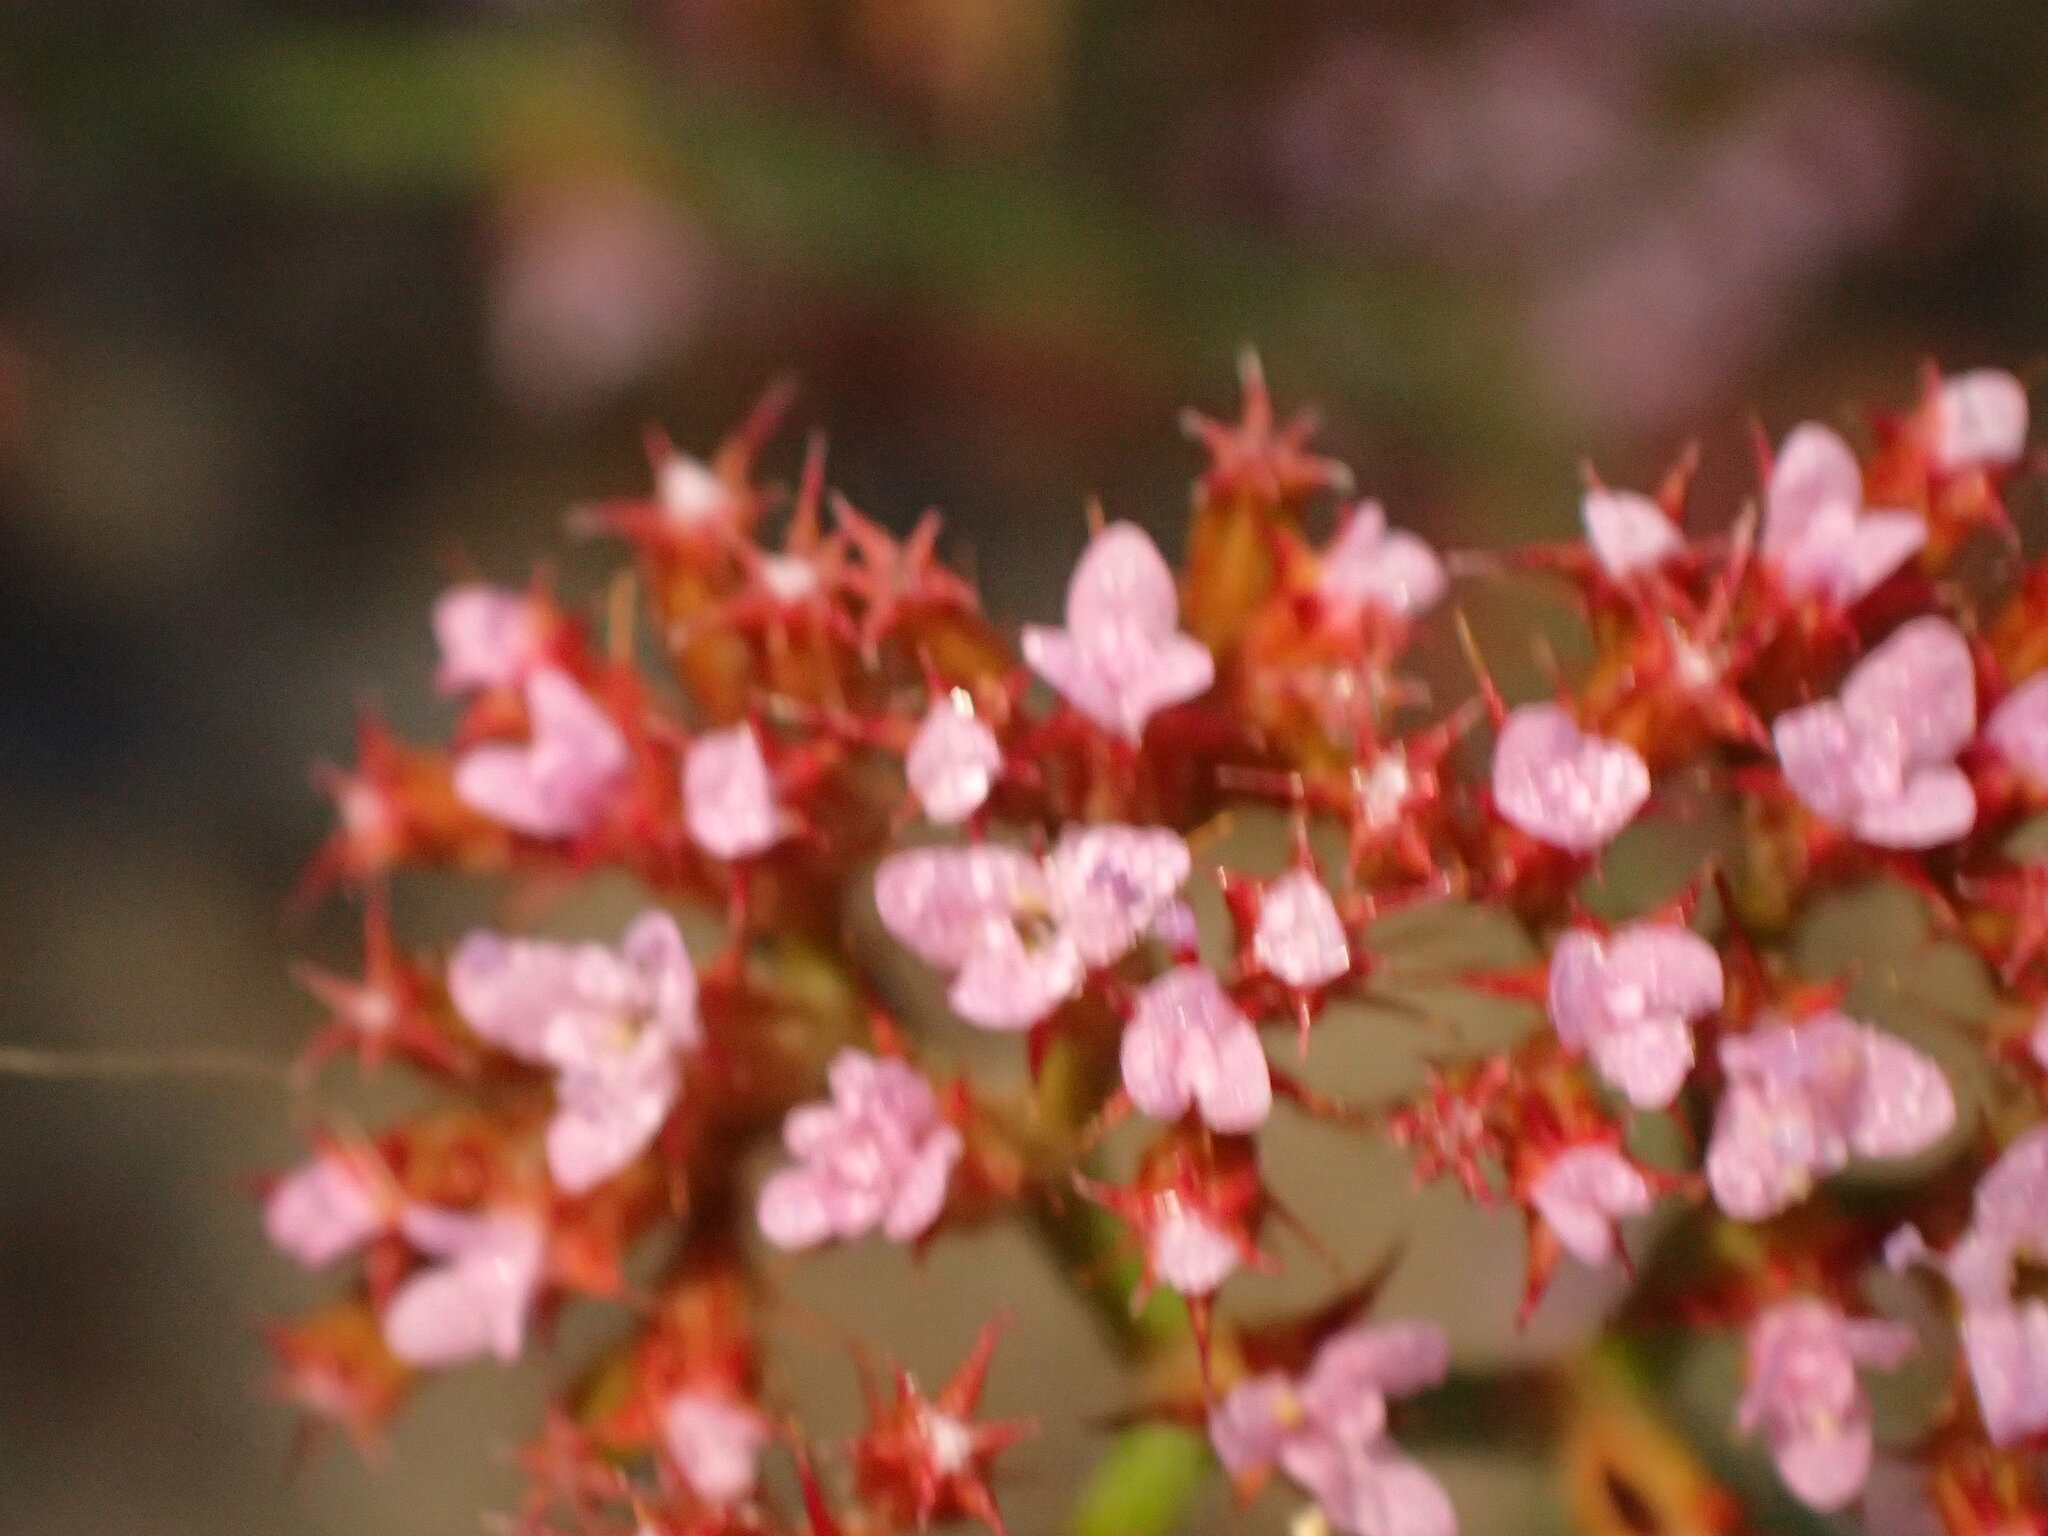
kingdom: Plantae
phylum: Tracheophyta
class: Magnoliopsida
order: Caryophyllales
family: Polygonaceae
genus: Chorizanthe
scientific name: Chorizanthe staticoides
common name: Turkish rugging
